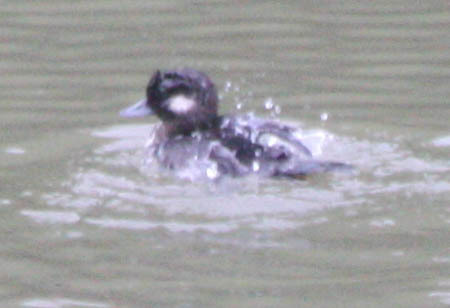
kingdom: Animalia
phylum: Chordata
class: Aves
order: Anseriformes
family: Anatidae
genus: Bucephala
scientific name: Bucephala albeola
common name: Bufflehead
